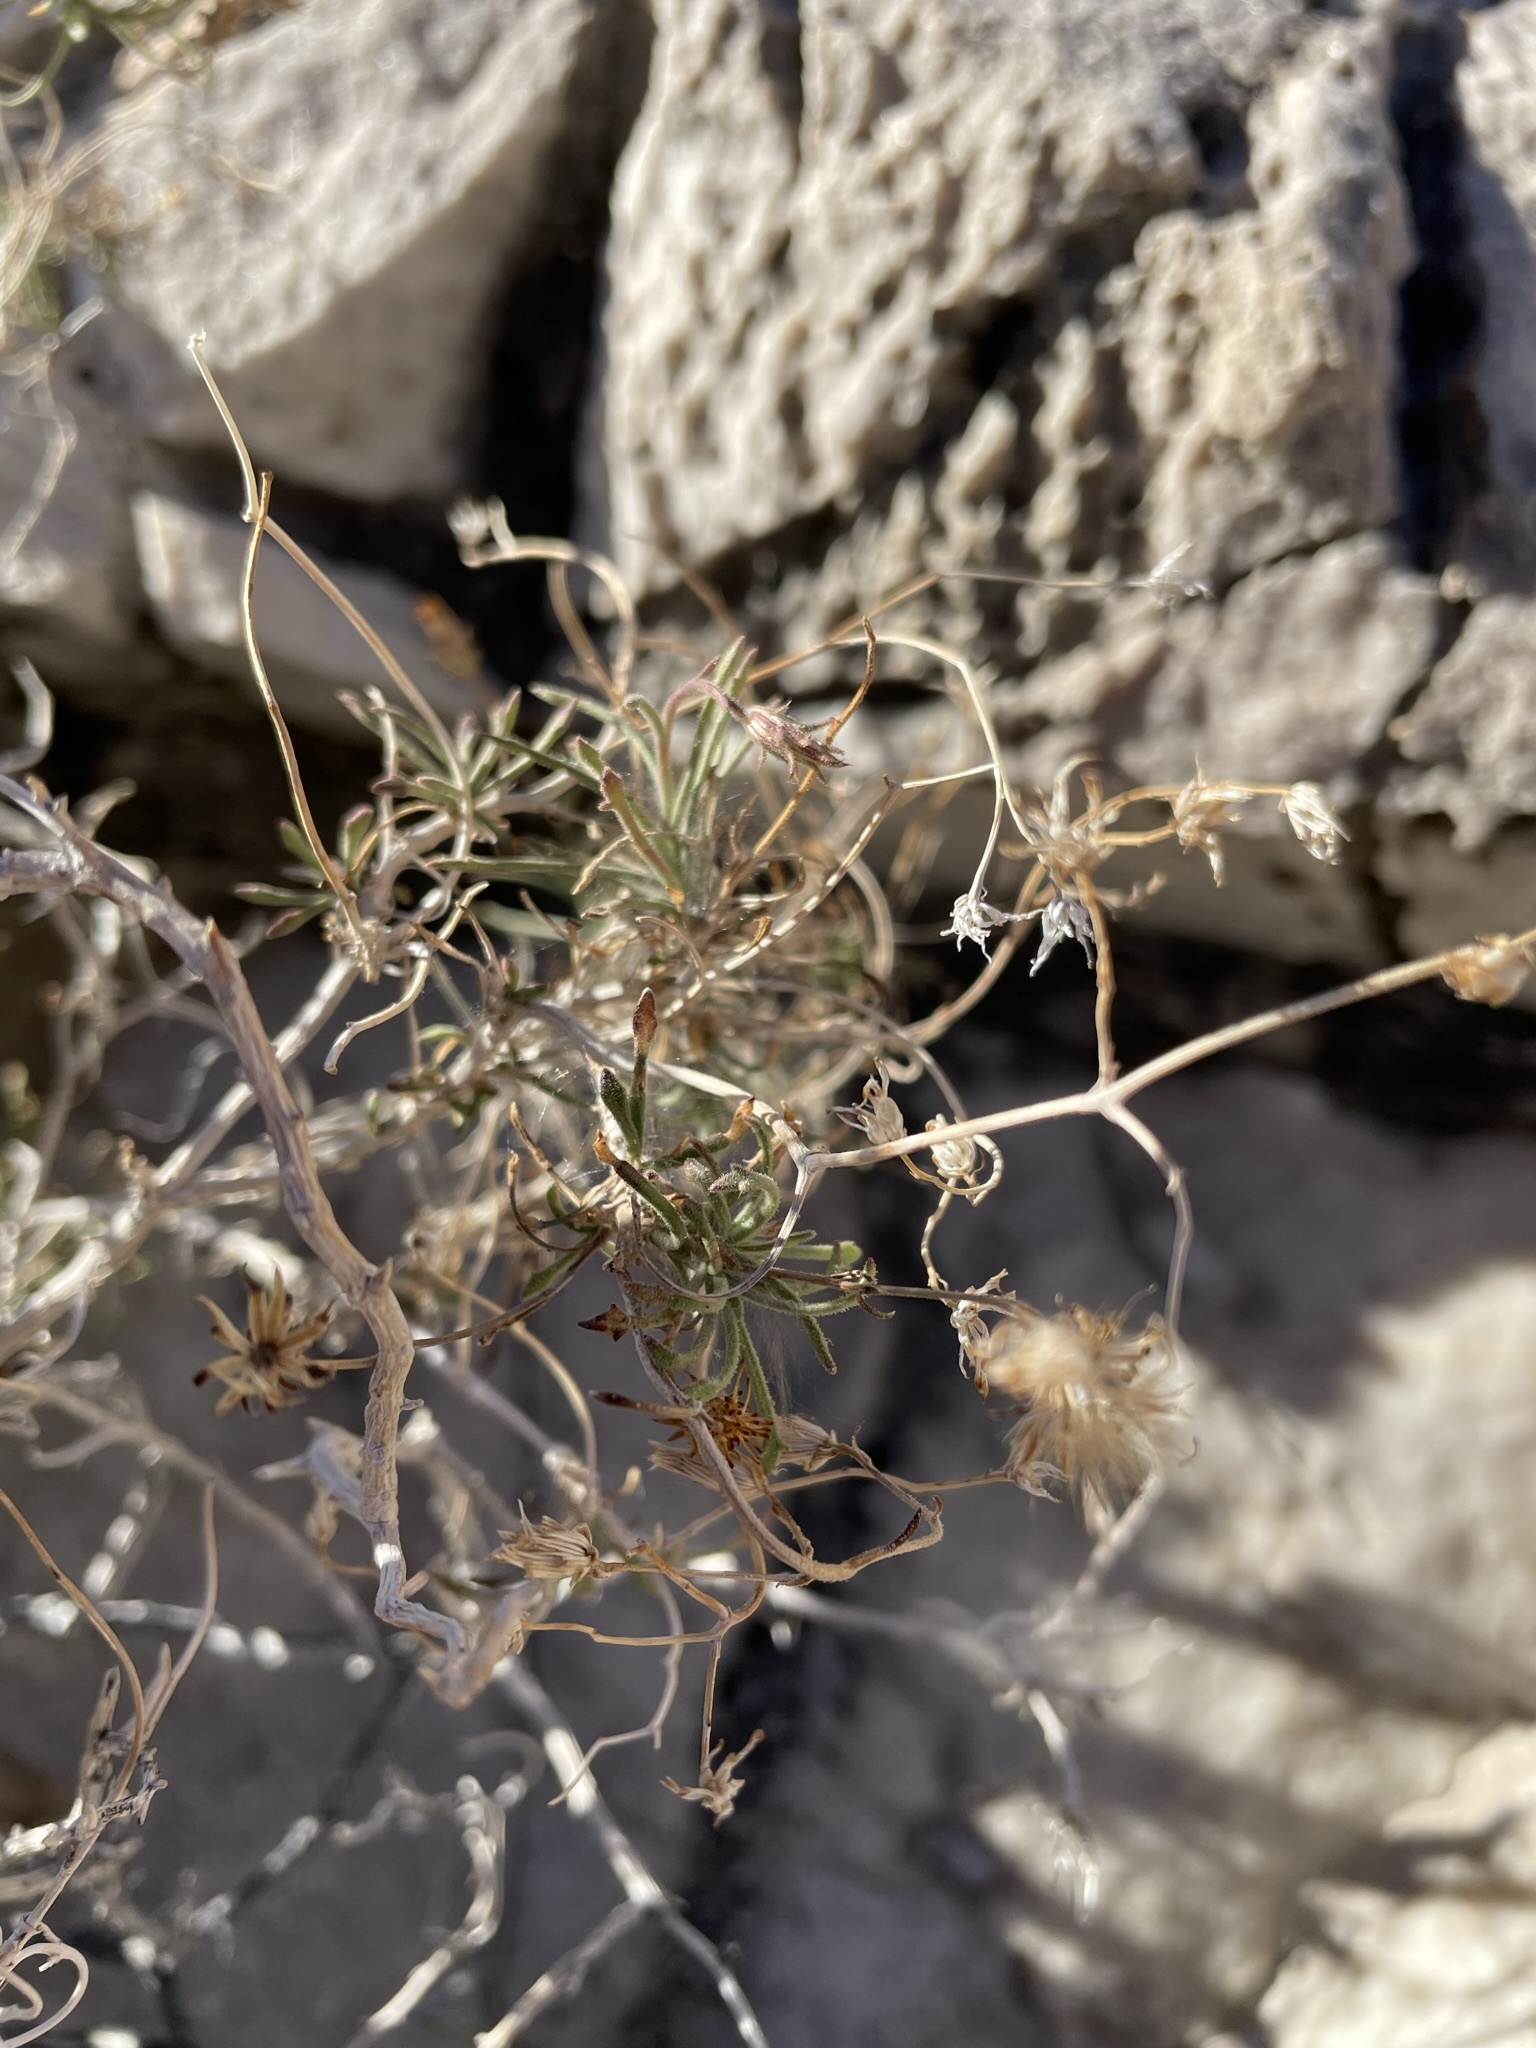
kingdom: Plantae
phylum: Tracheophyta
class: Magnoliopsida
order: Asterales
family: Asteraceae
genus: Pleurocoronis
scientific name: Pleurocoronis pluriseta
